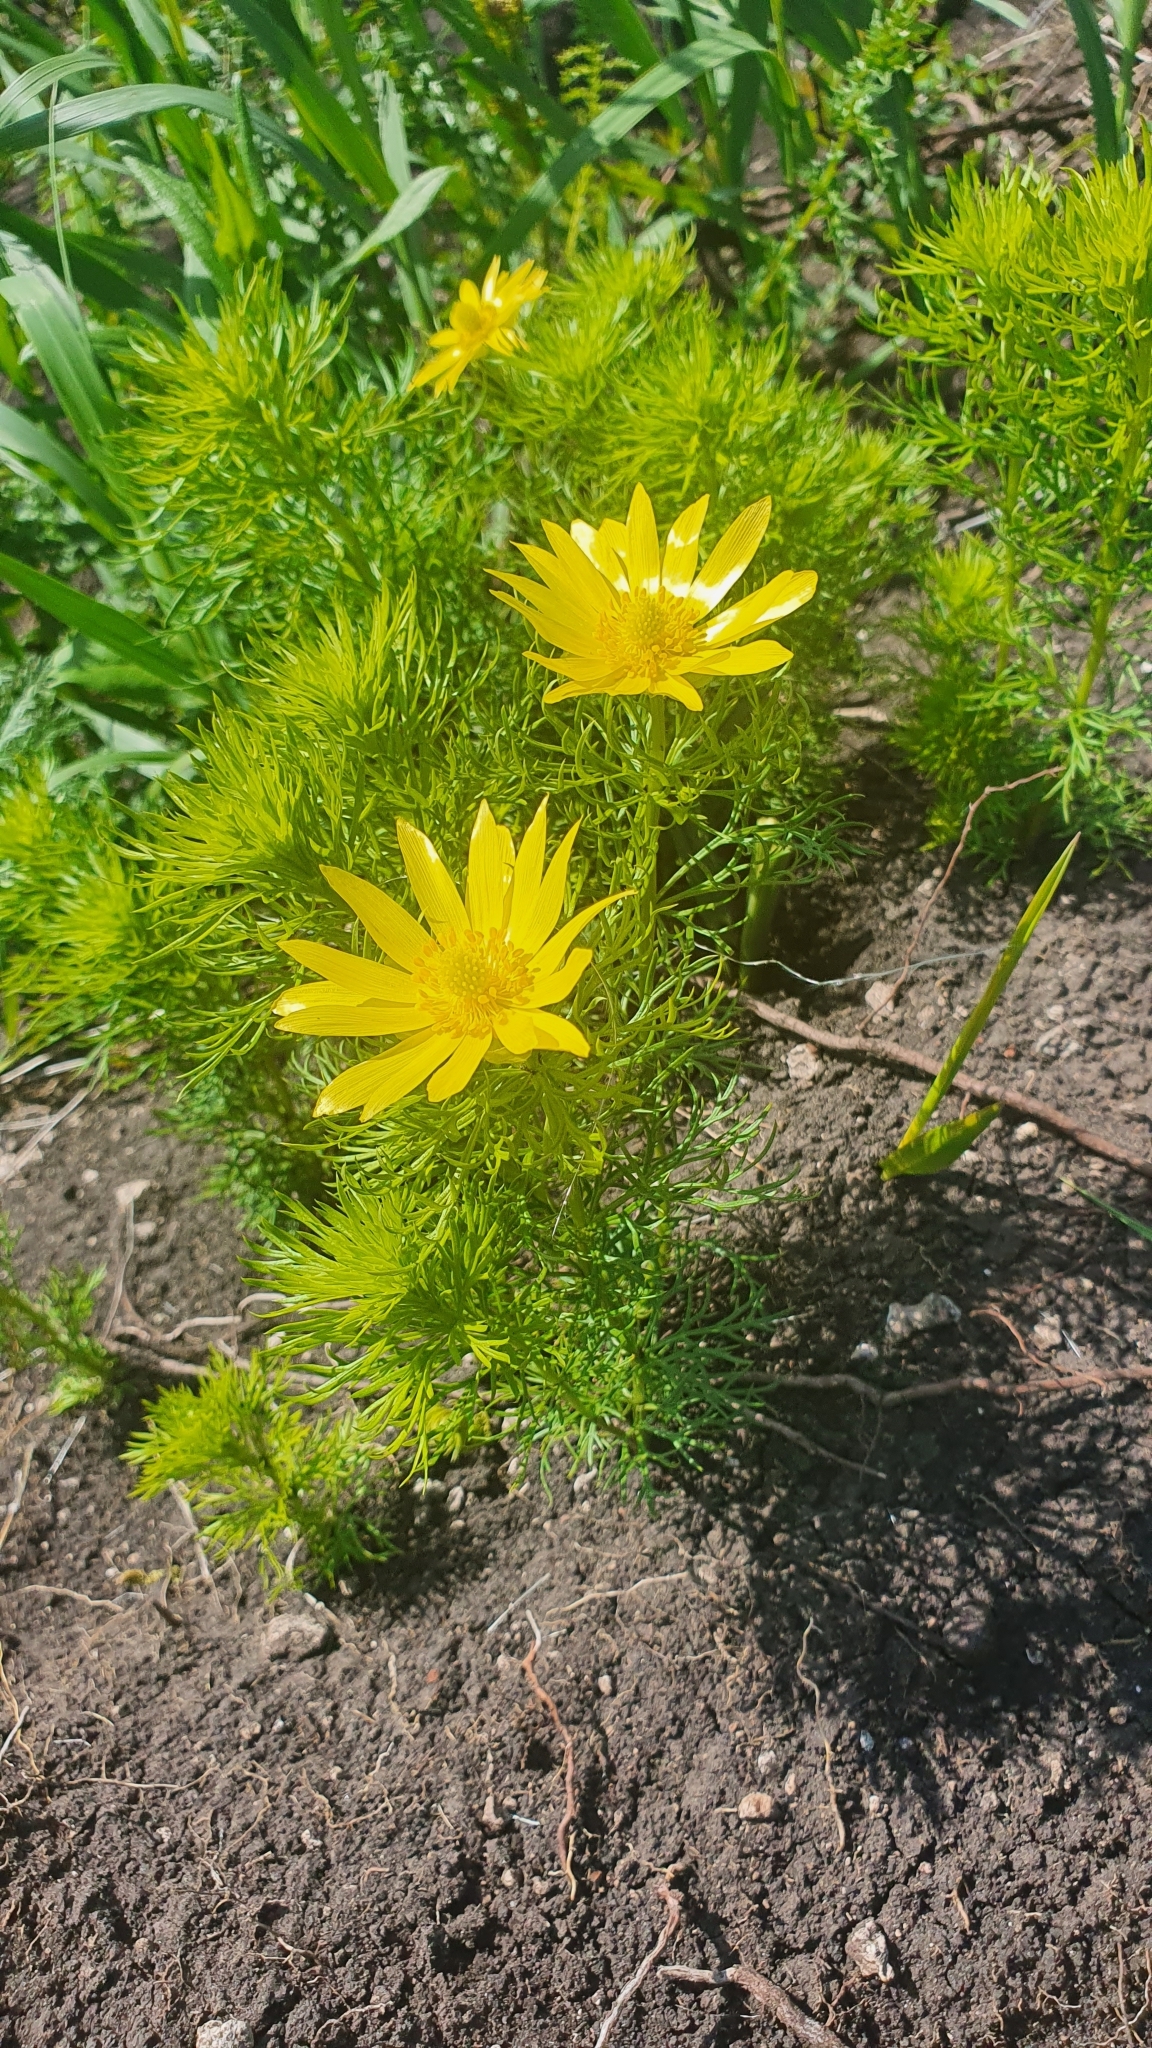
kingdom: Plantae
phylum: Tracheophyta
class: Magnoliopsida
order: Ranunculales
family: Ranunculaceae
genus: Adonis
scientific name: Adonis vernalis
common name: Yellow pheasants-eye
